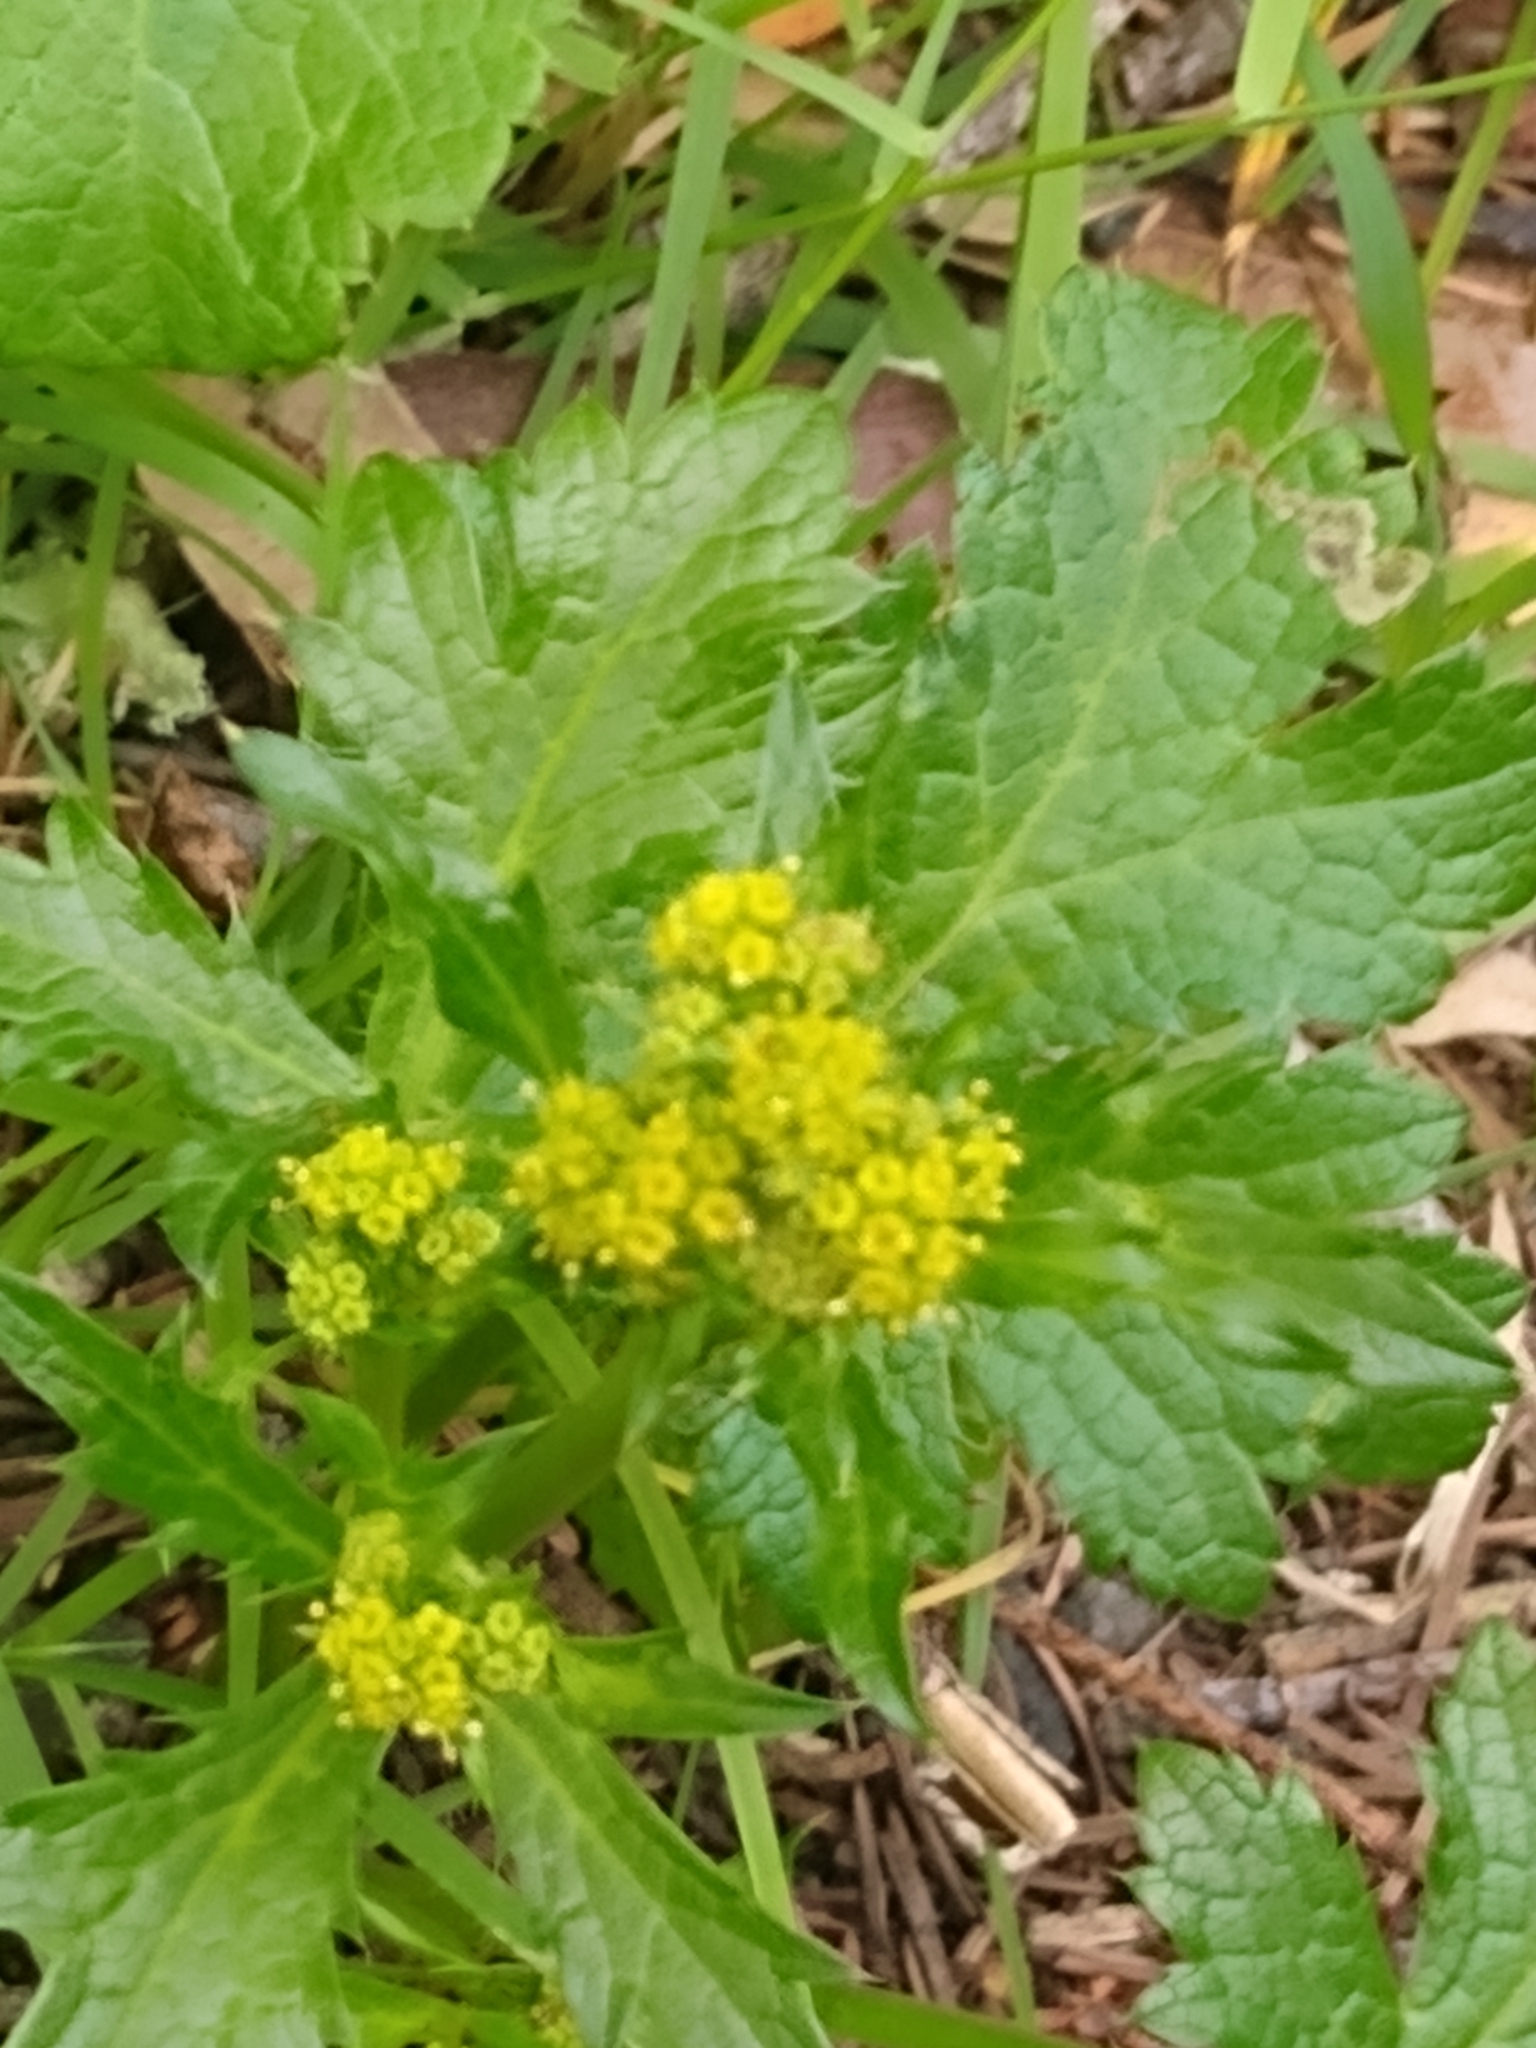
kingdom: Plantae
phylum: Tracheophyta
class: Magnoliopsida
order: Apiales
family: Apiaceae
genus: Sanicula
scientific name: Sanicula crassicaulis
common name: Western snakeroot
